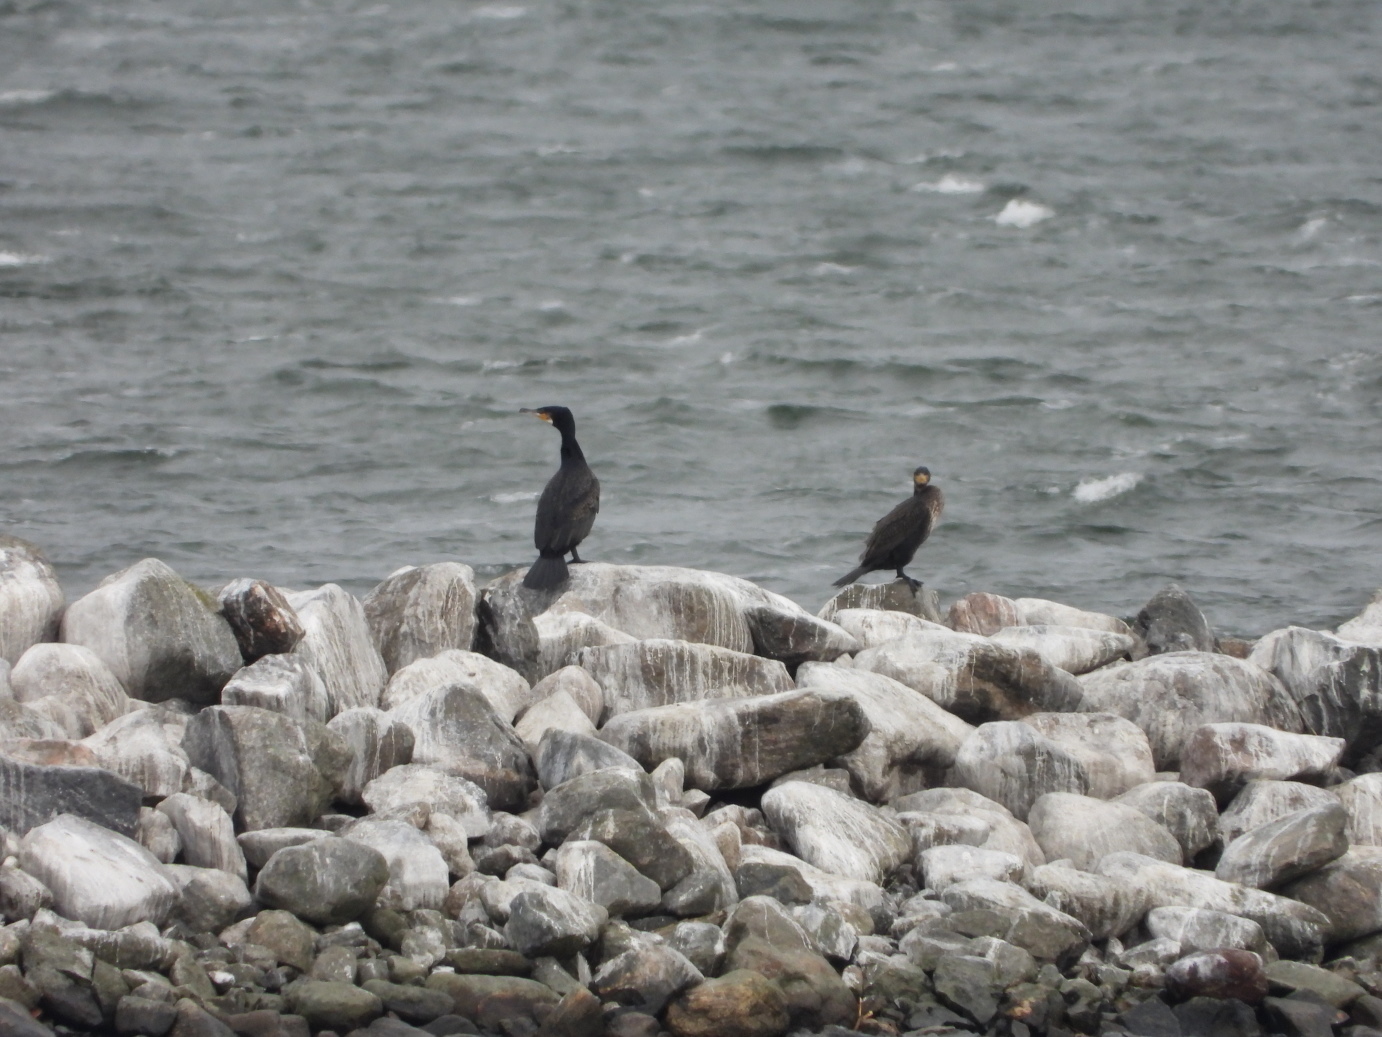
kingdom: Animalia
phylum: Chordata
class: Aves
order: Suliformes
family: Phalacrocoracidae
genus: Phalacrocorax
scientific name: Phalacrocorax carbo
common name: Great cormorant
